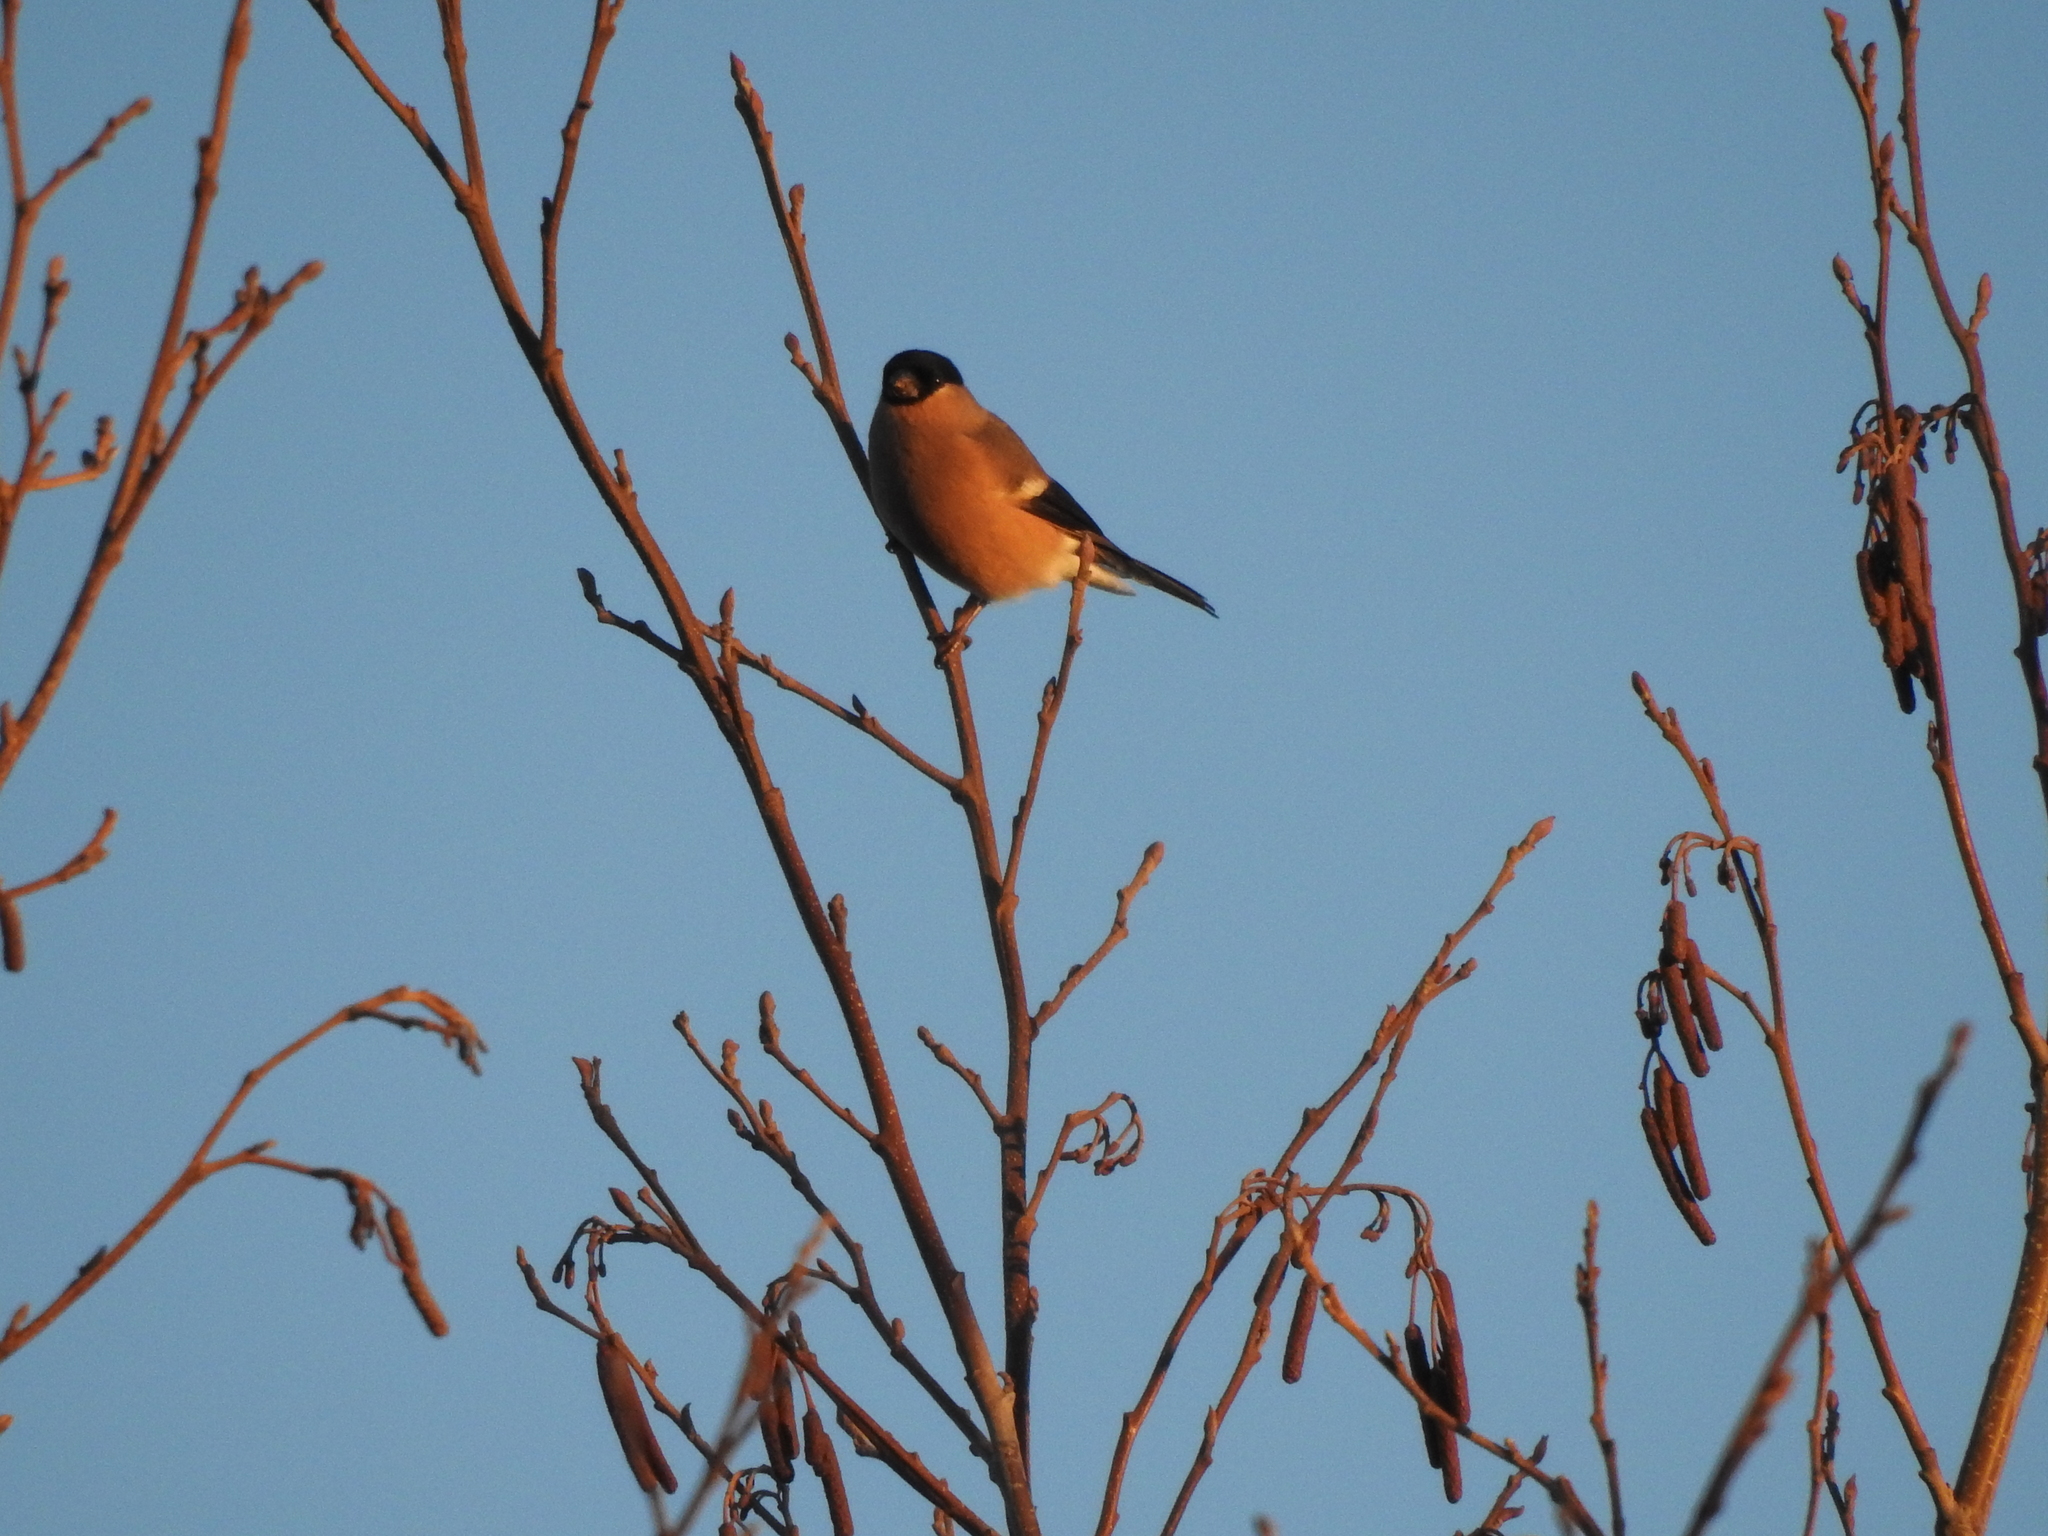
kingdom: Animalia
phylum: Chordata
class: Aves
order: Passeriformes
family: Fringillidae
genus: Pyrrhula
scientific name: Pyrrhula pyrrhula
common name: Eurasian bullfinch
